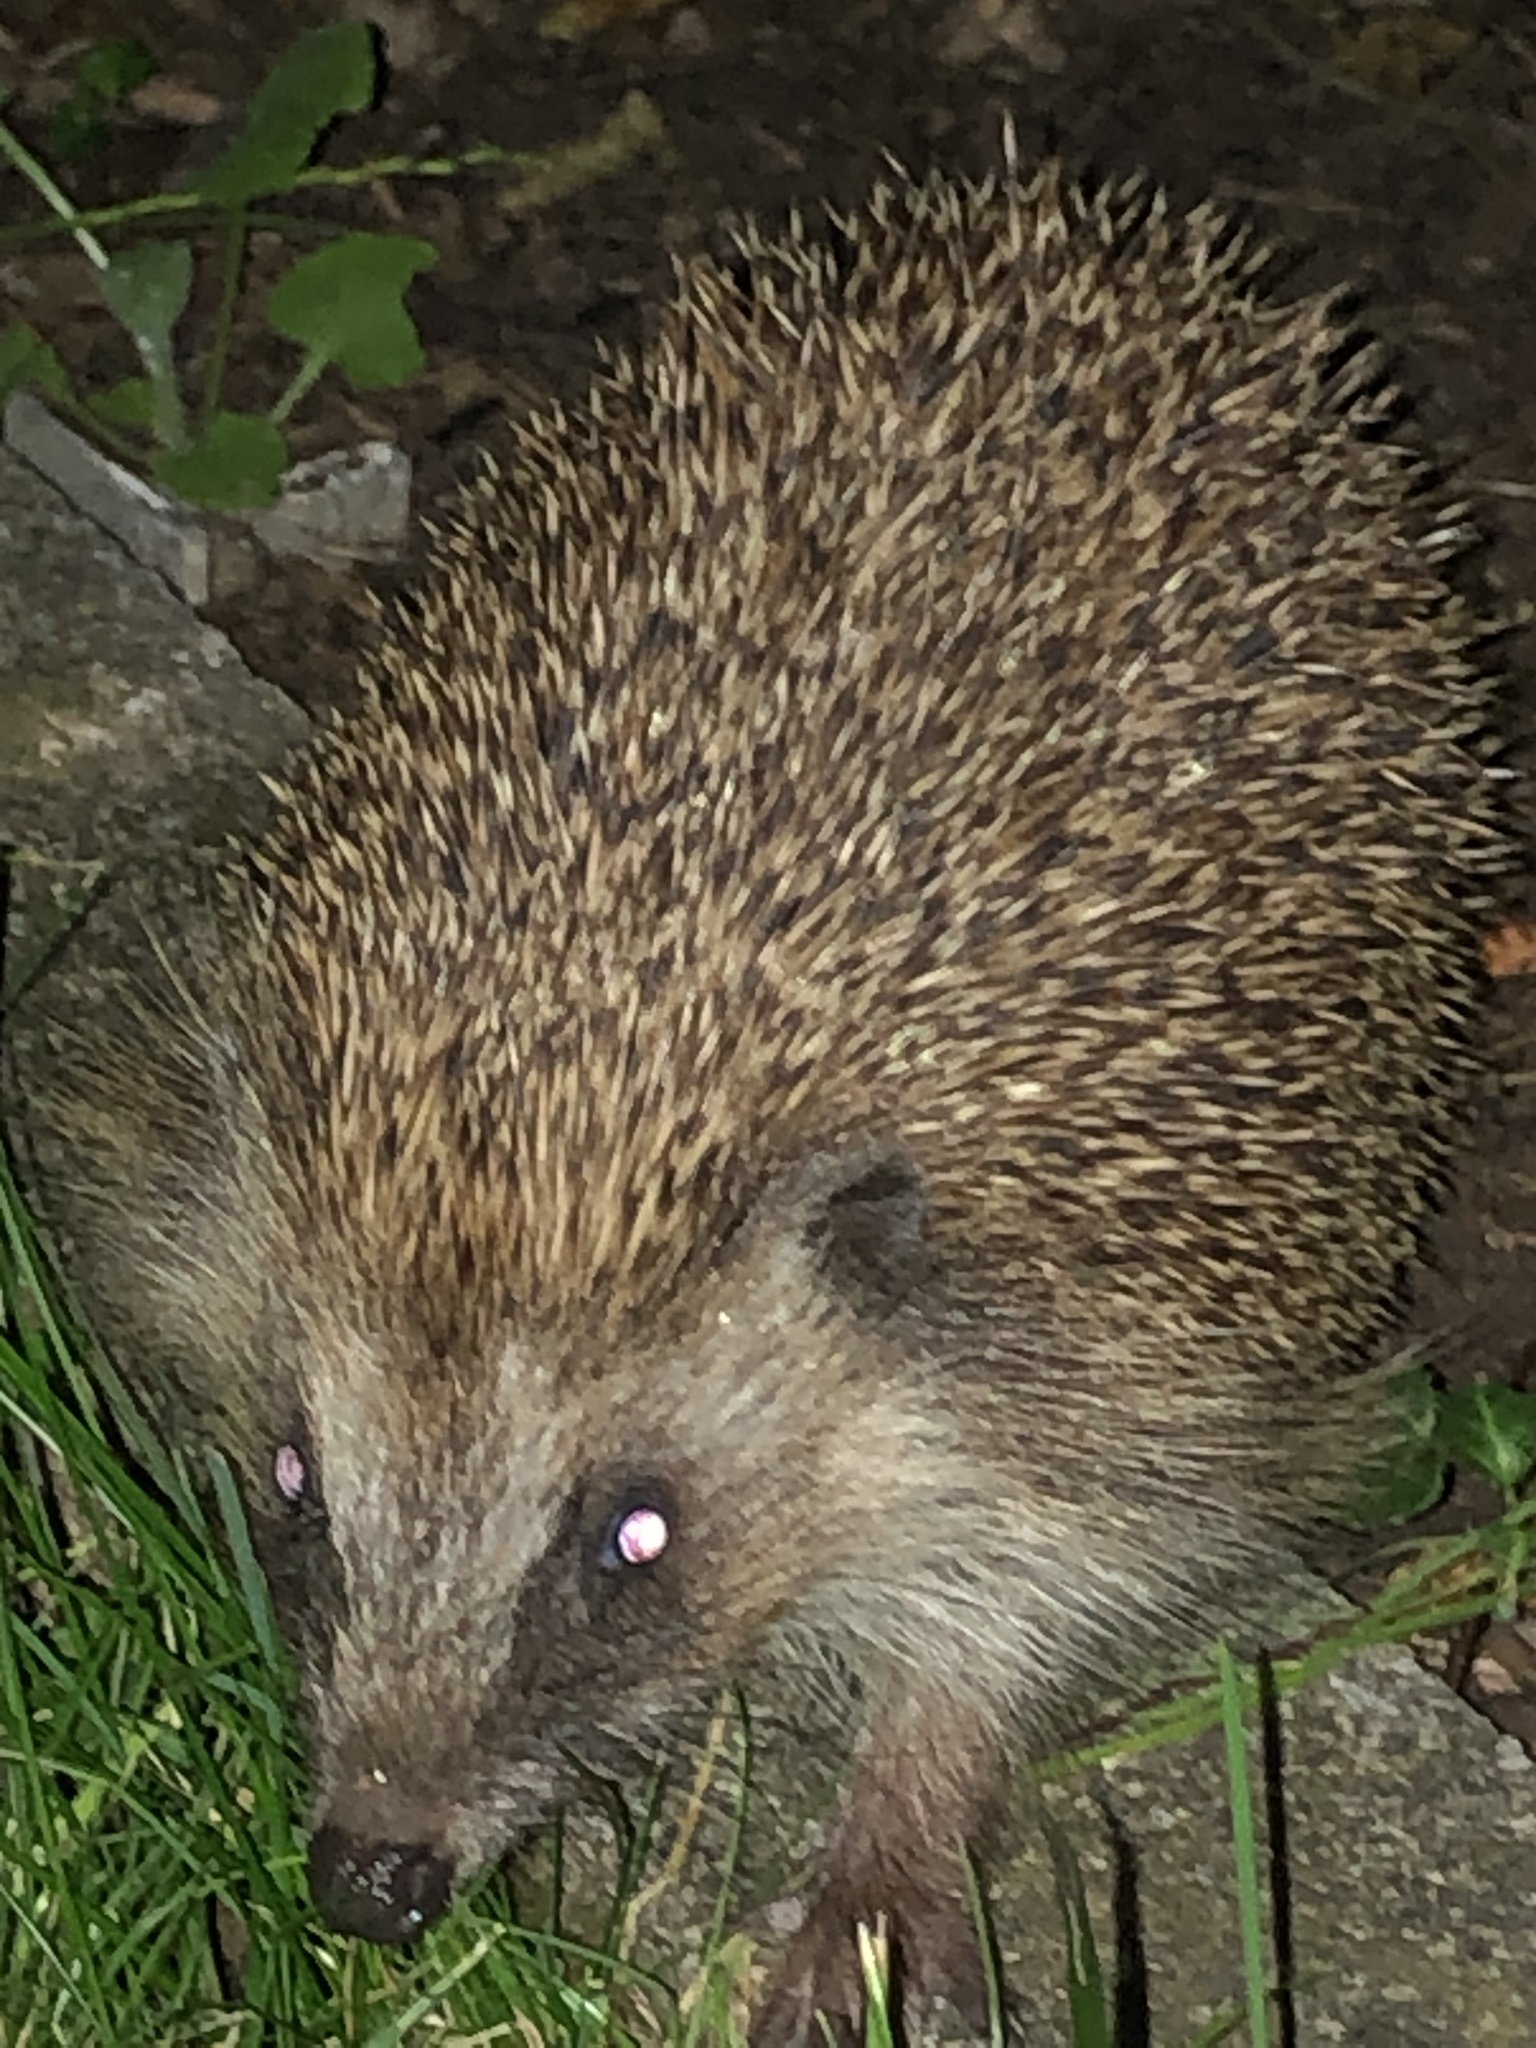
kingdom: Animalia
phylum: Chordata
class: Mammalia
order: Erinaceomorpha
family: Erinaceidae
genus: Erinaceus
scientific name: Erinaceus europaeus
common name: West european hedgehog
